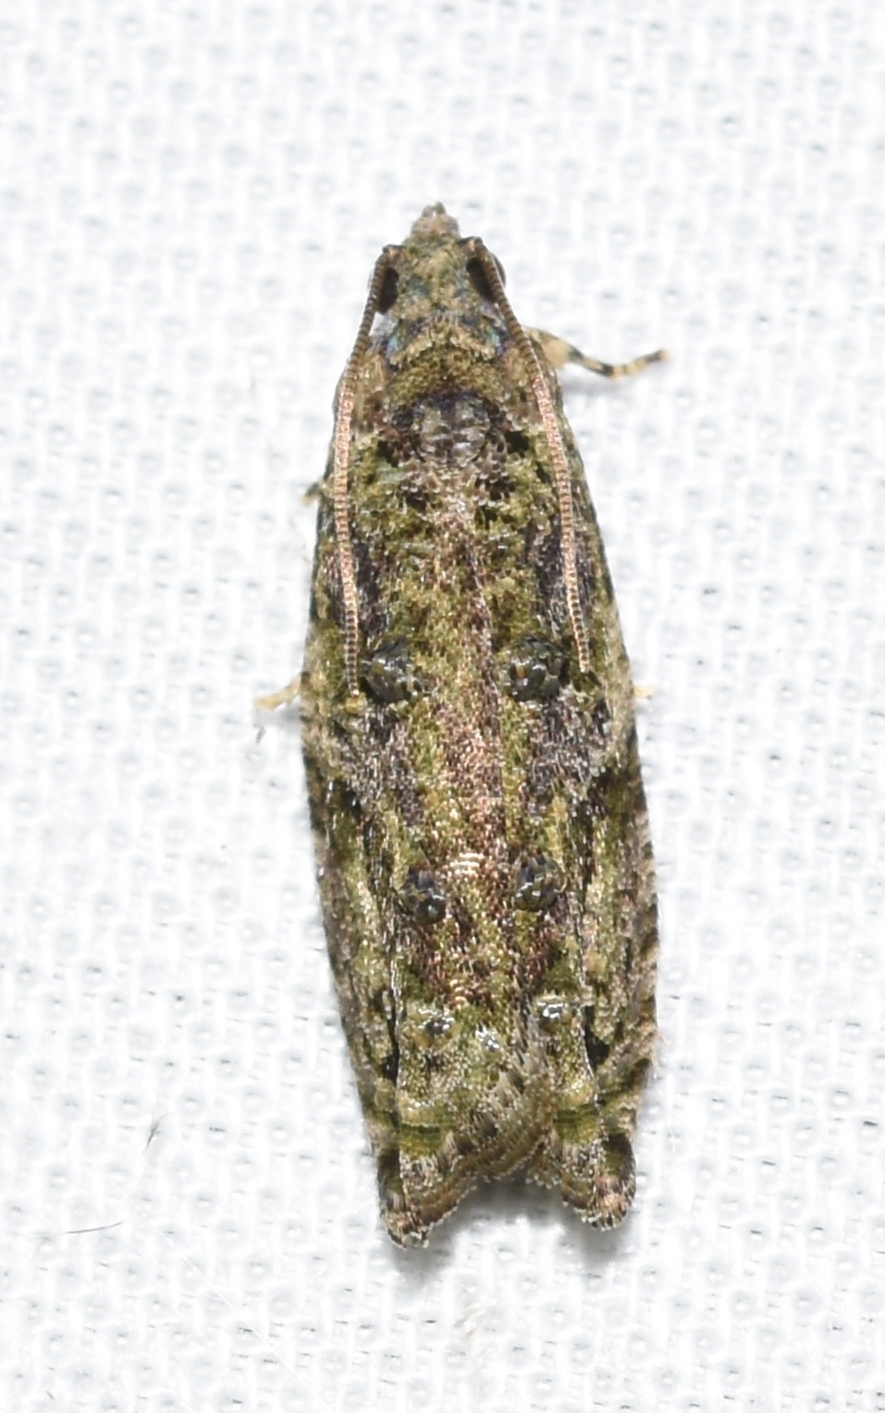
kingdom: Animalia
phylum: Arthropoda
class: Insecta
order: Lepidoptera
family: Tortricidae
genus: Proteoteras
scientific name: Proteoteras aesculana
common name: Maple twig borer moth
